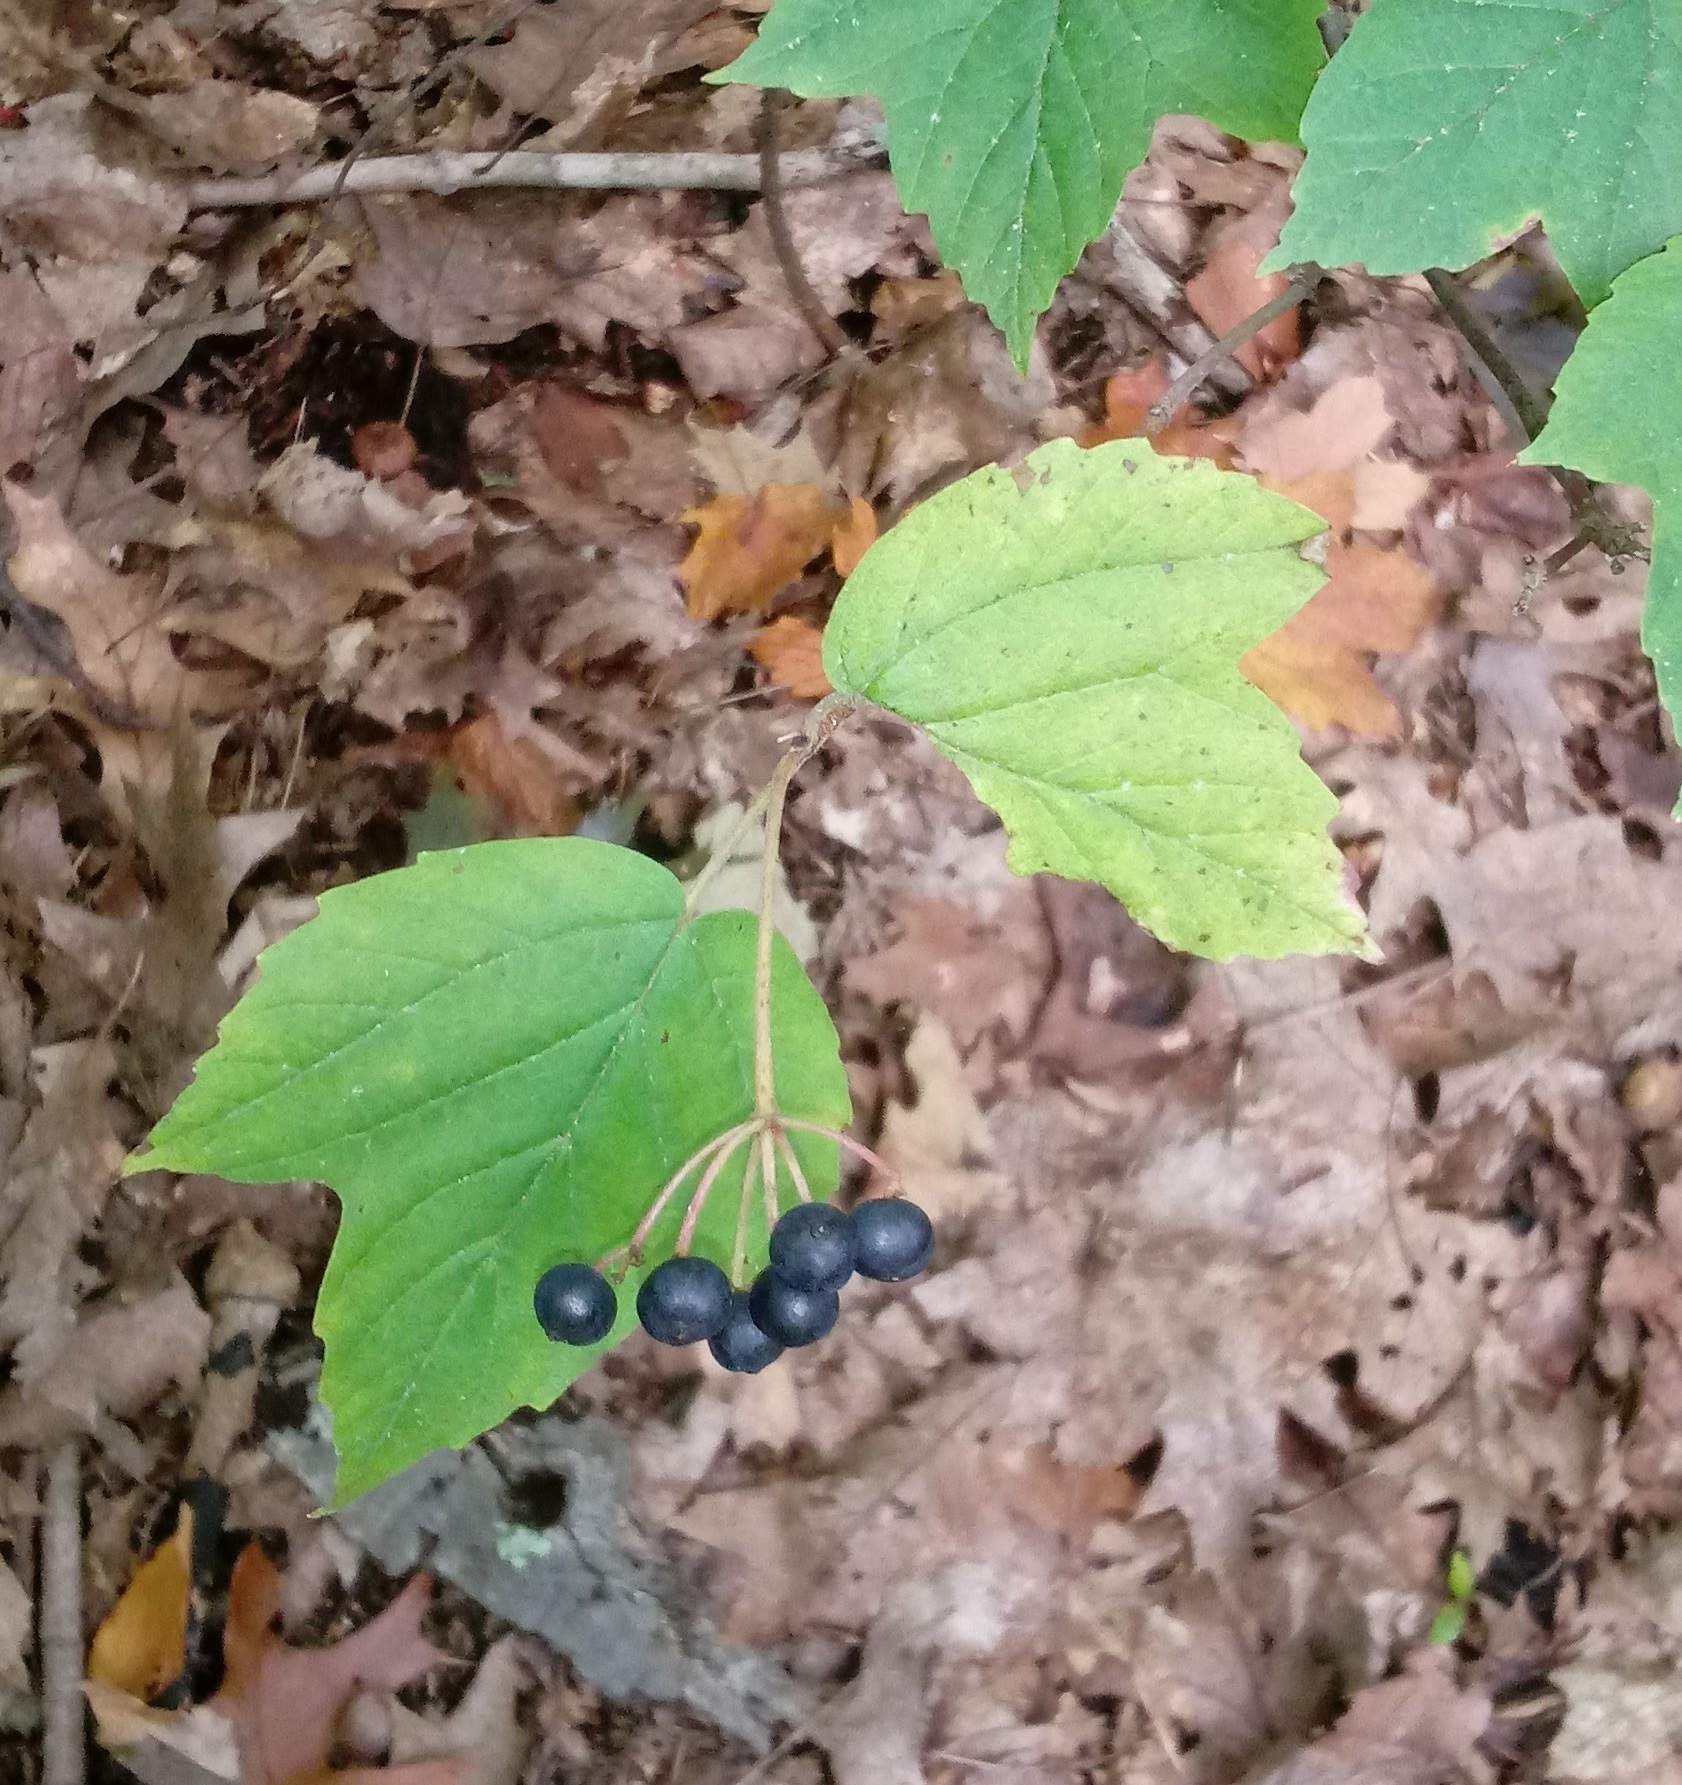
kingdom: Plantae
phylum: Tracheophyta
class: Magnoliopsida
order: Dipsacales
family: Viburnaceae
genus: Viburnum
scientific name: Viburnum acerifolium
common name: Dockmackie
